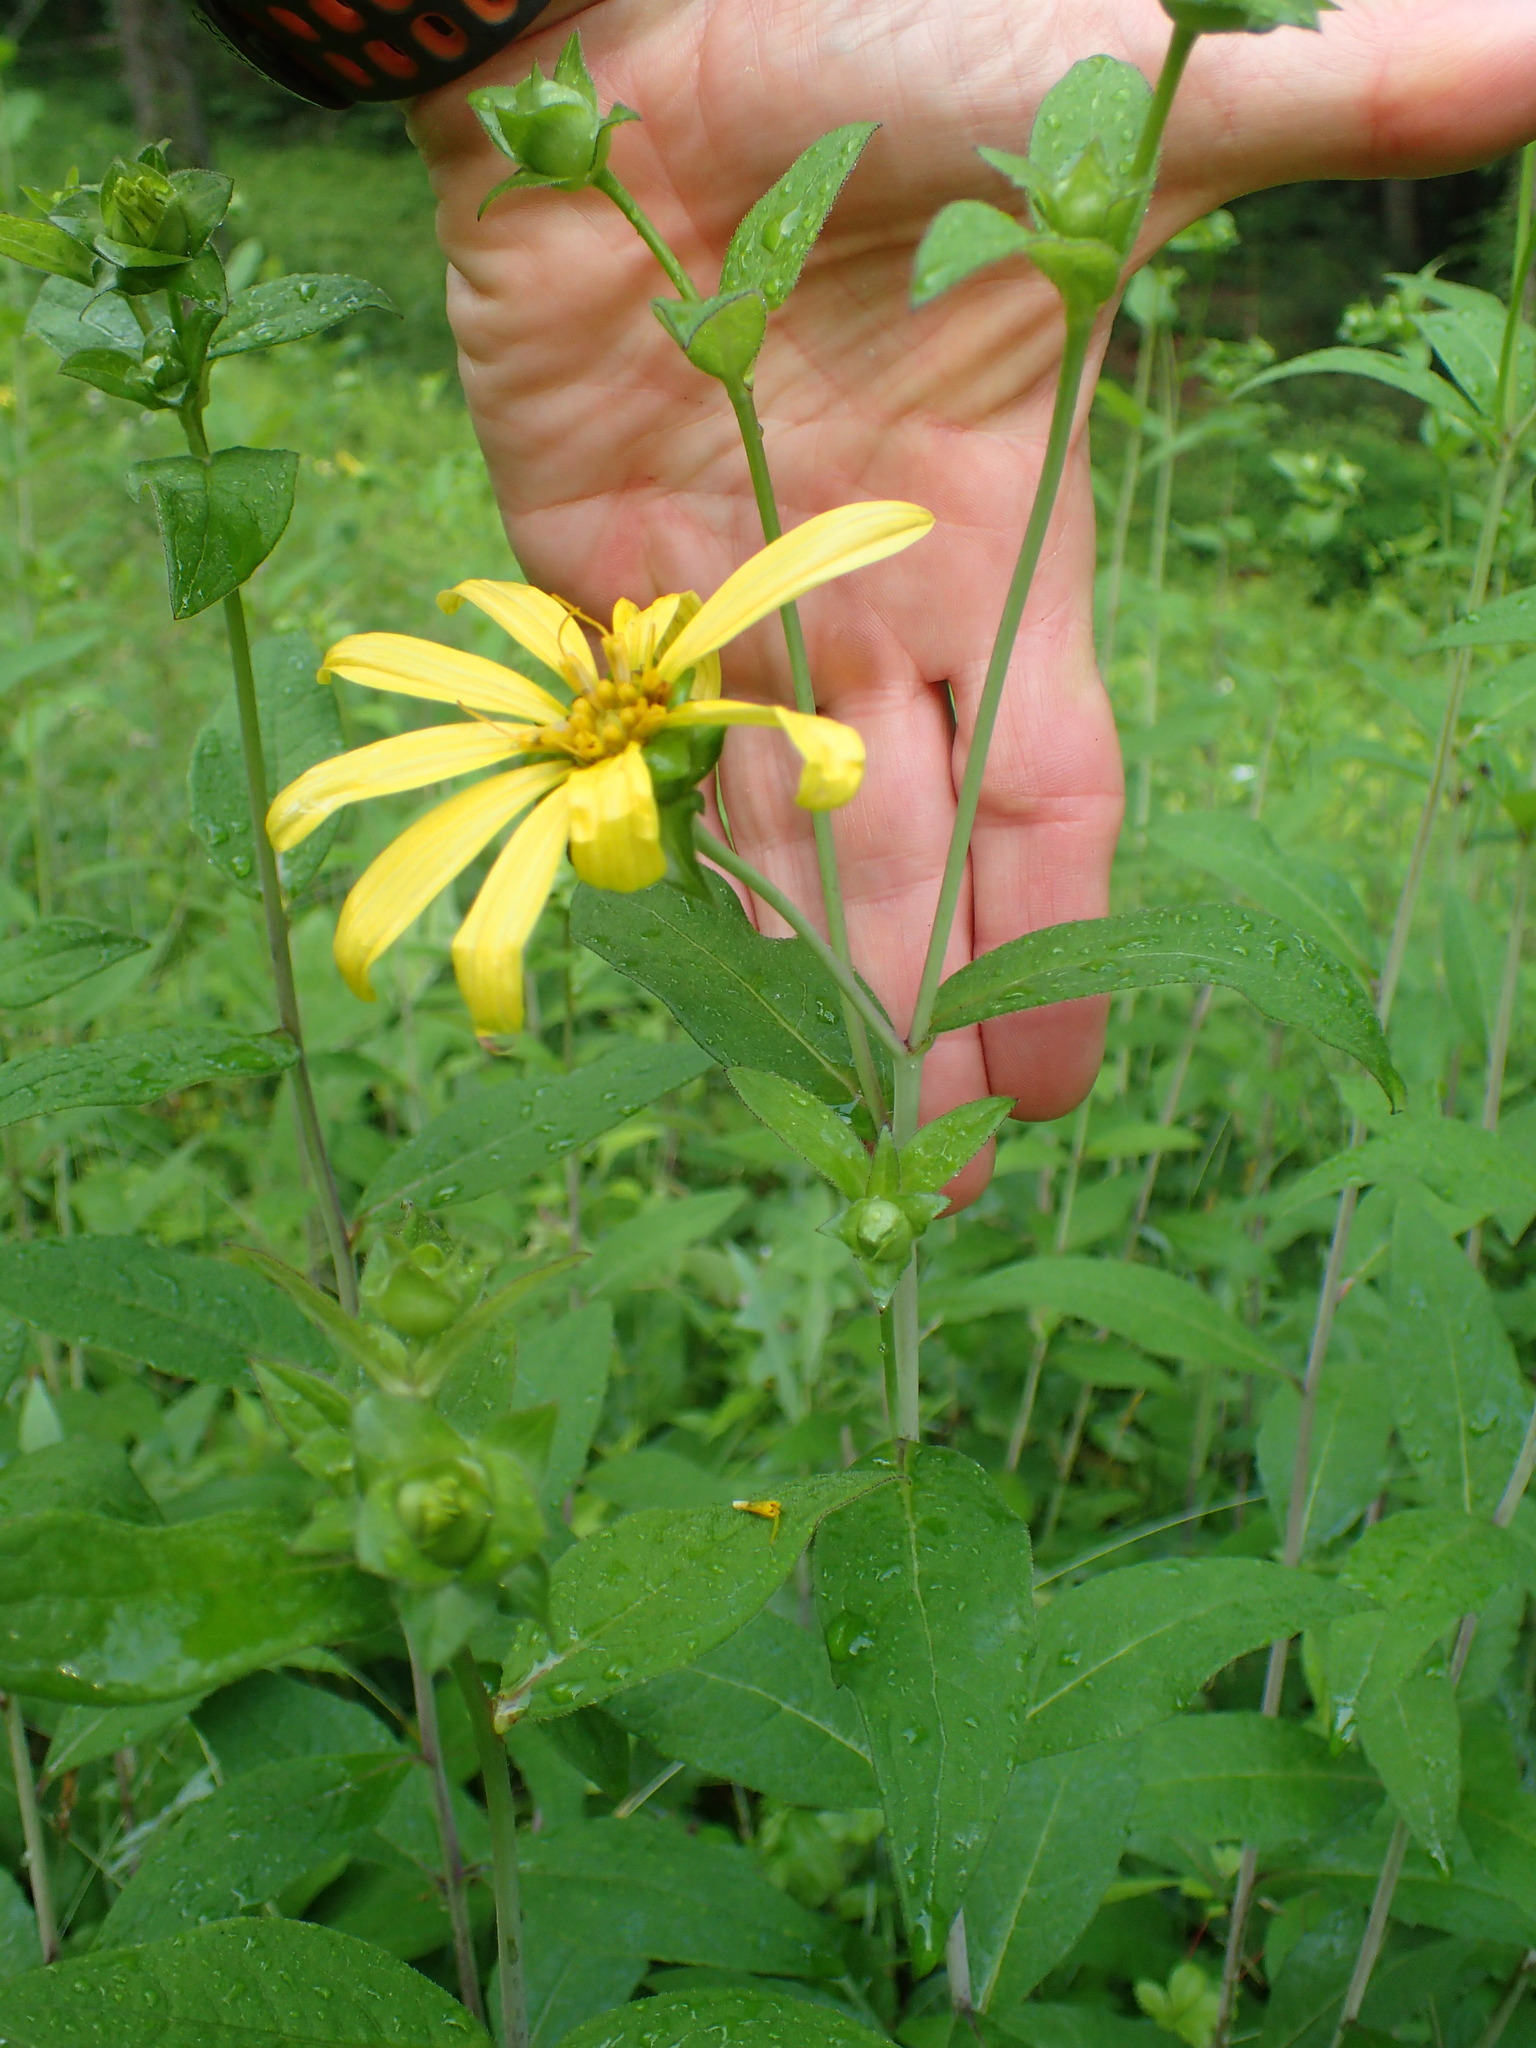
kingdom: Plantae
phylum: Tracheophyta
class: Magnoliopsida
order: Asterales
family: Asteraceae
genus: Silphium
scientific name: Silphium asteriscus
